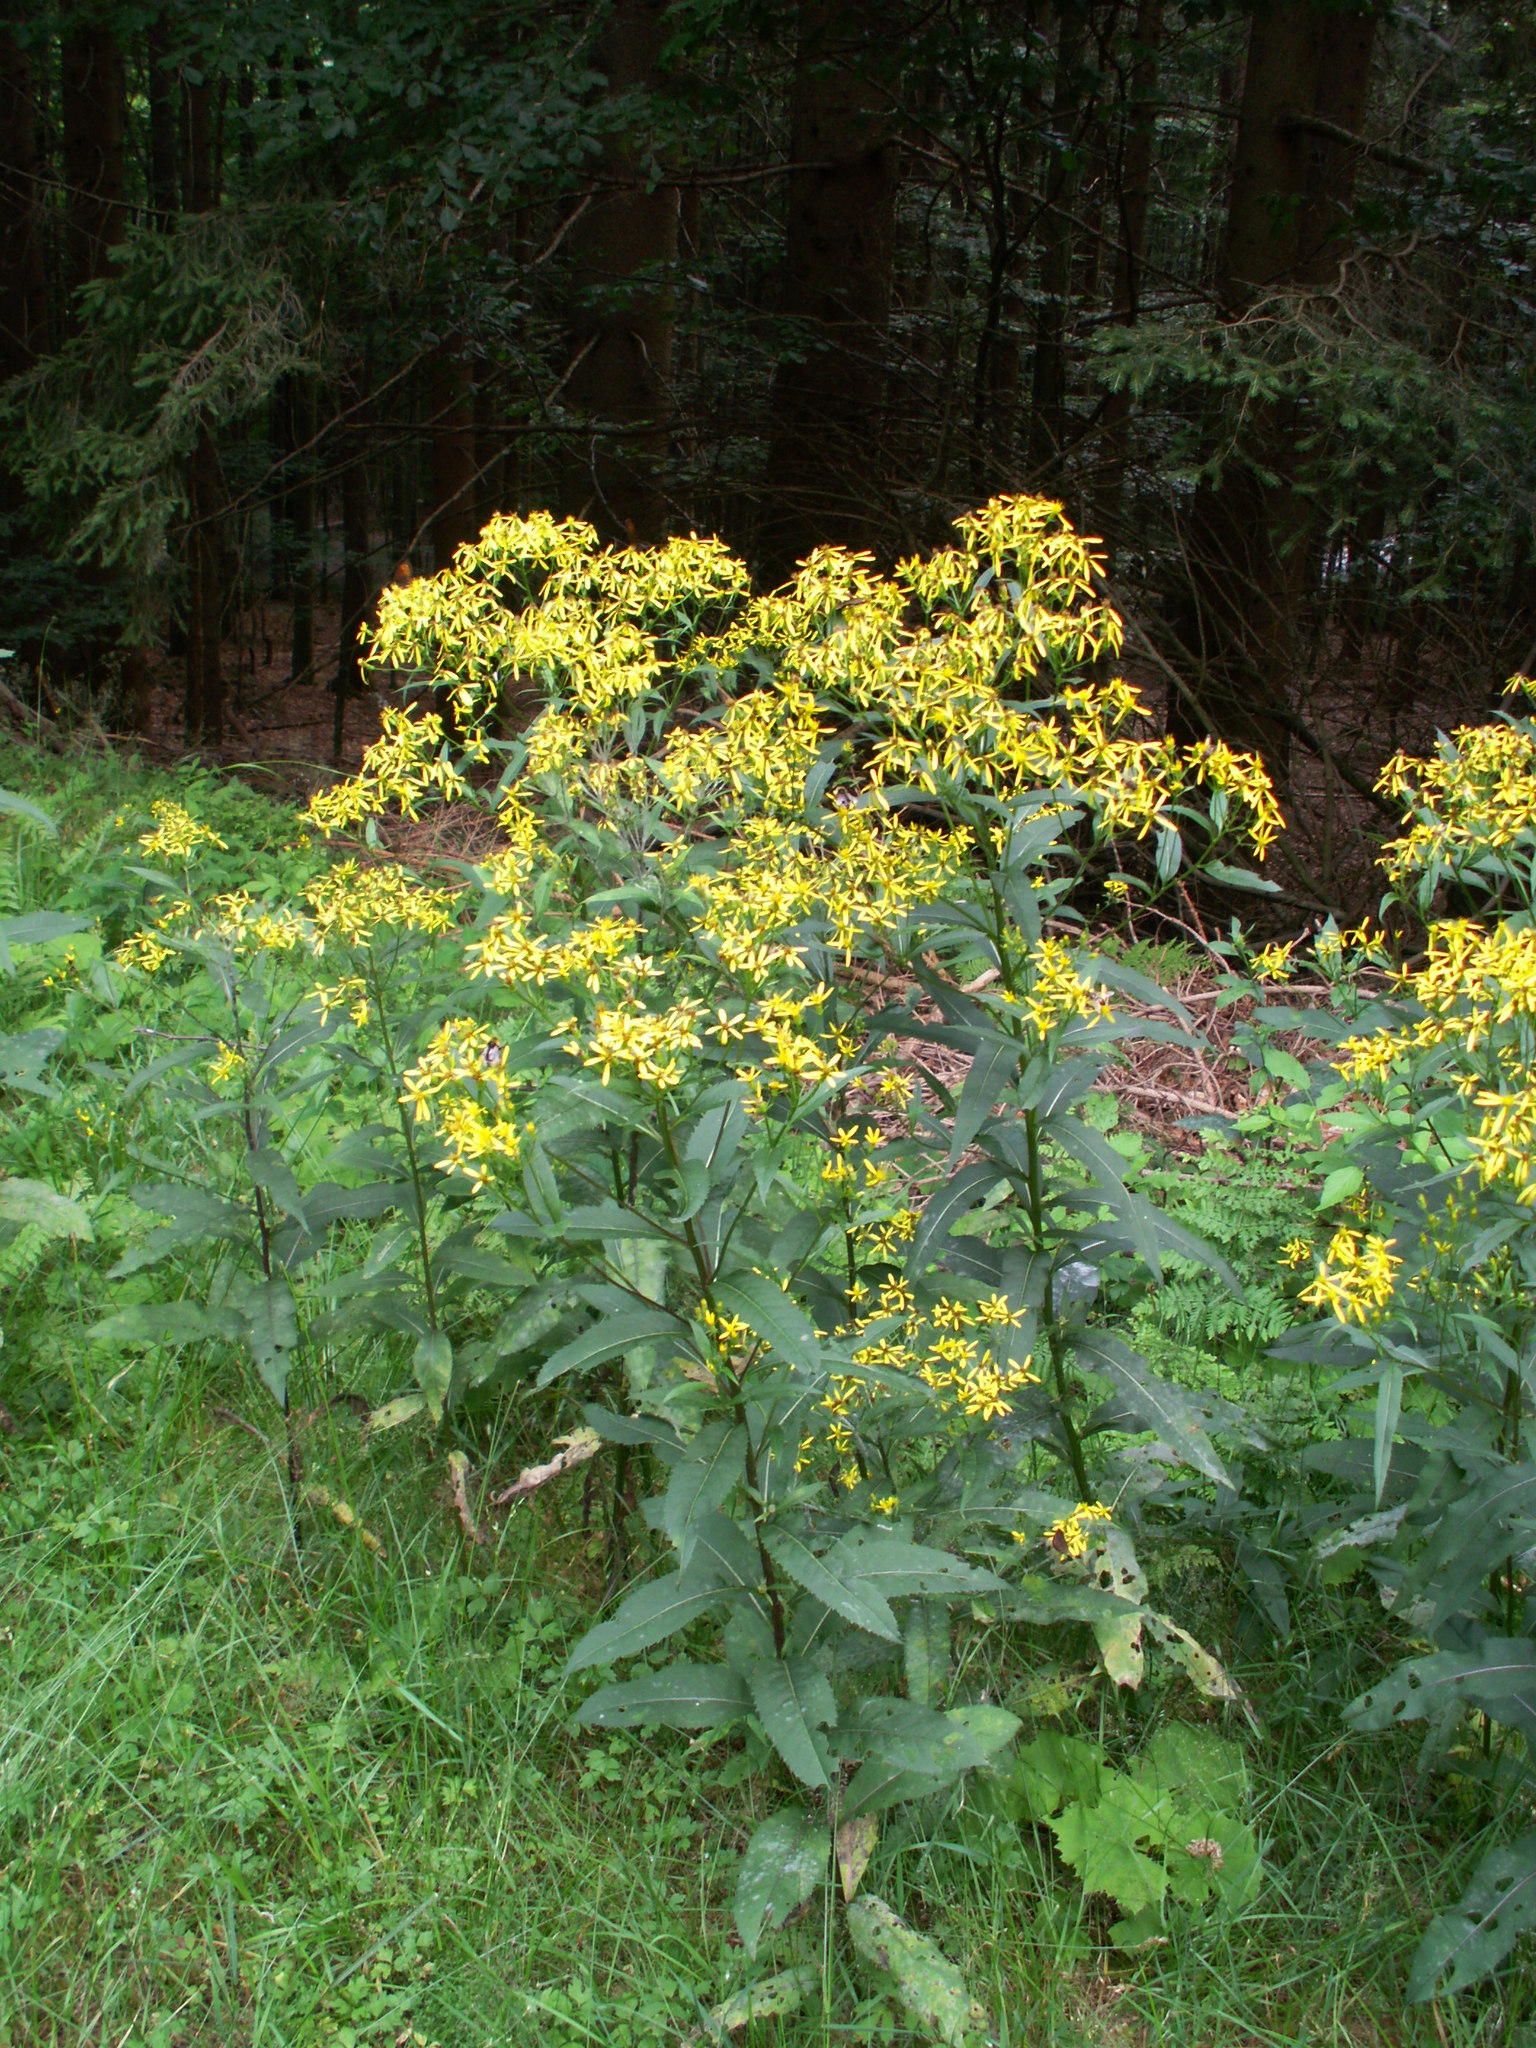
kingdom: Plantae
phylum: Tracheophyta
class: Magnoliopsida
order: Asterales
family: Asteraceae
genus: Senecio
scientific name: Senecio ovatus
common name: Wood ragwort
